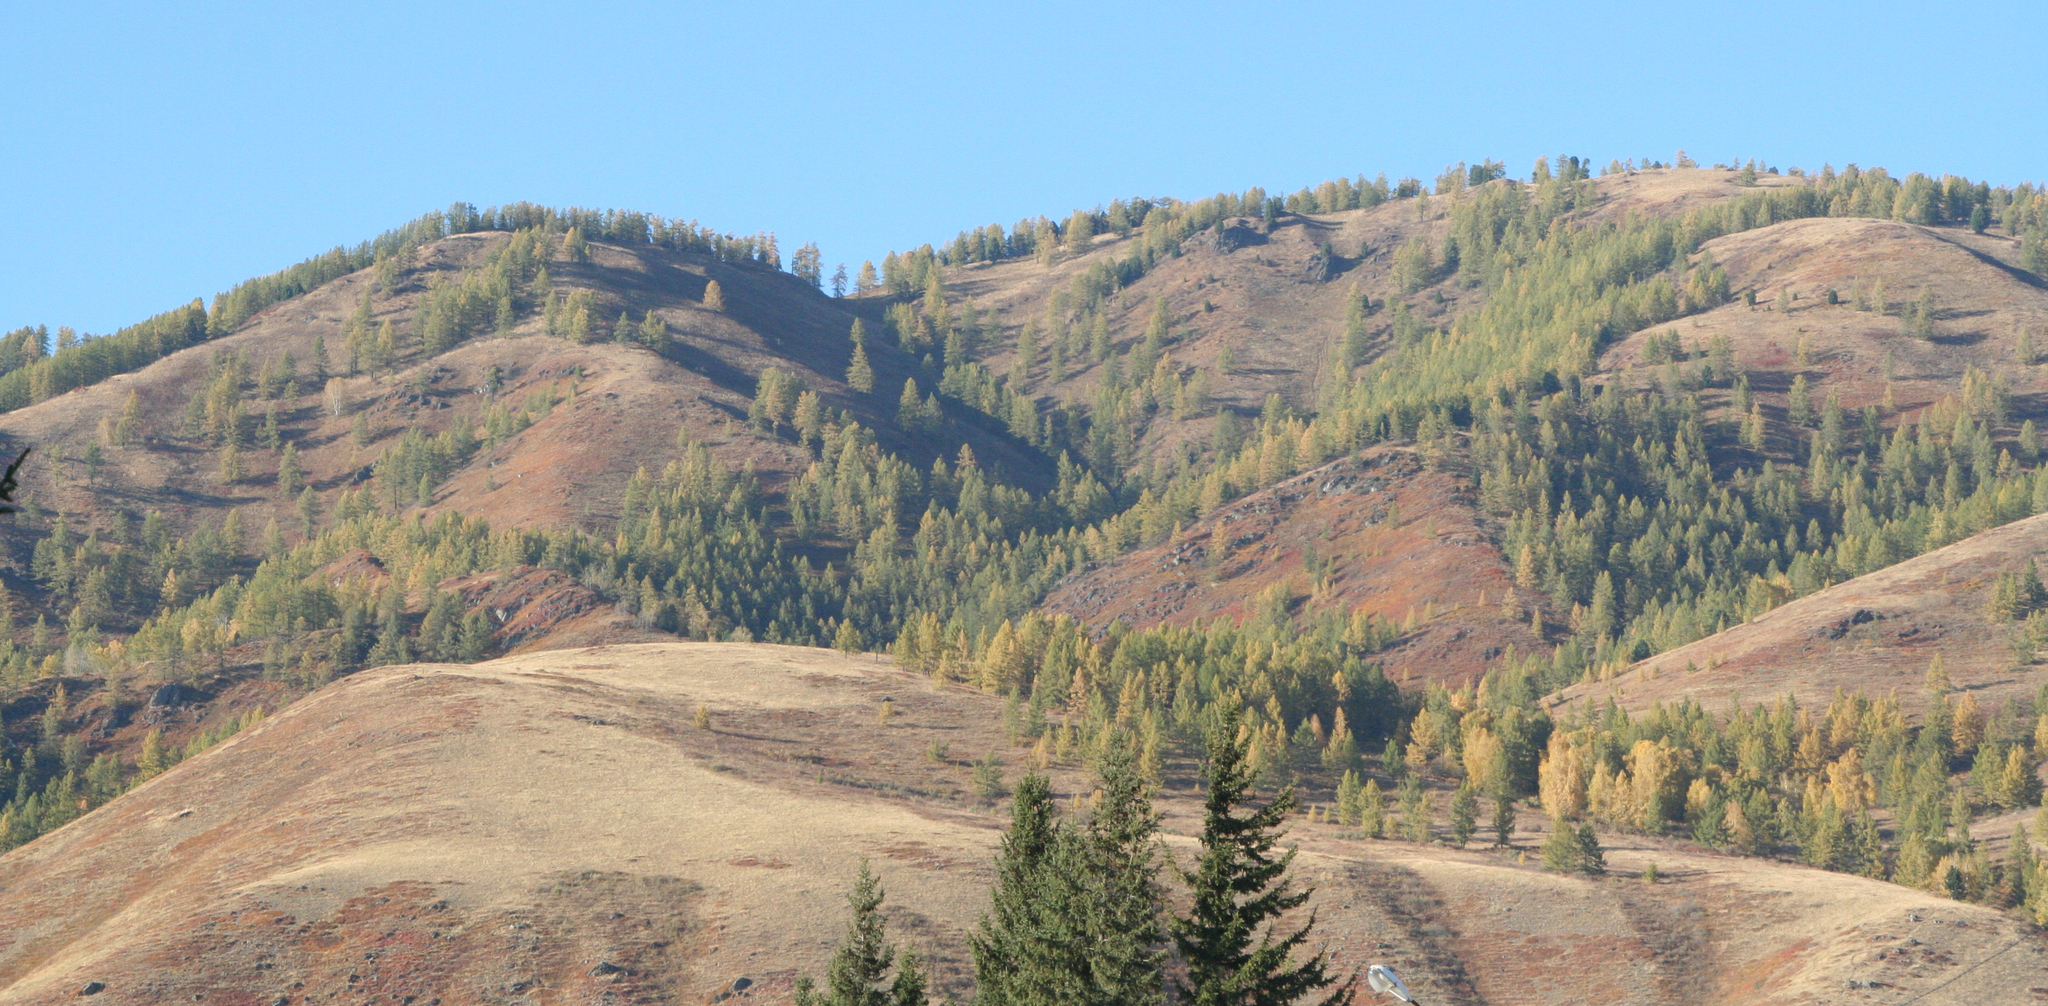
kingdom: Plantae
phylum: Tracheophyta
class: Pinopsida
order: Pinales
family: Pinaceae
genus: Larix
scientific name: Larix sibirica
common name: Siberian larch
